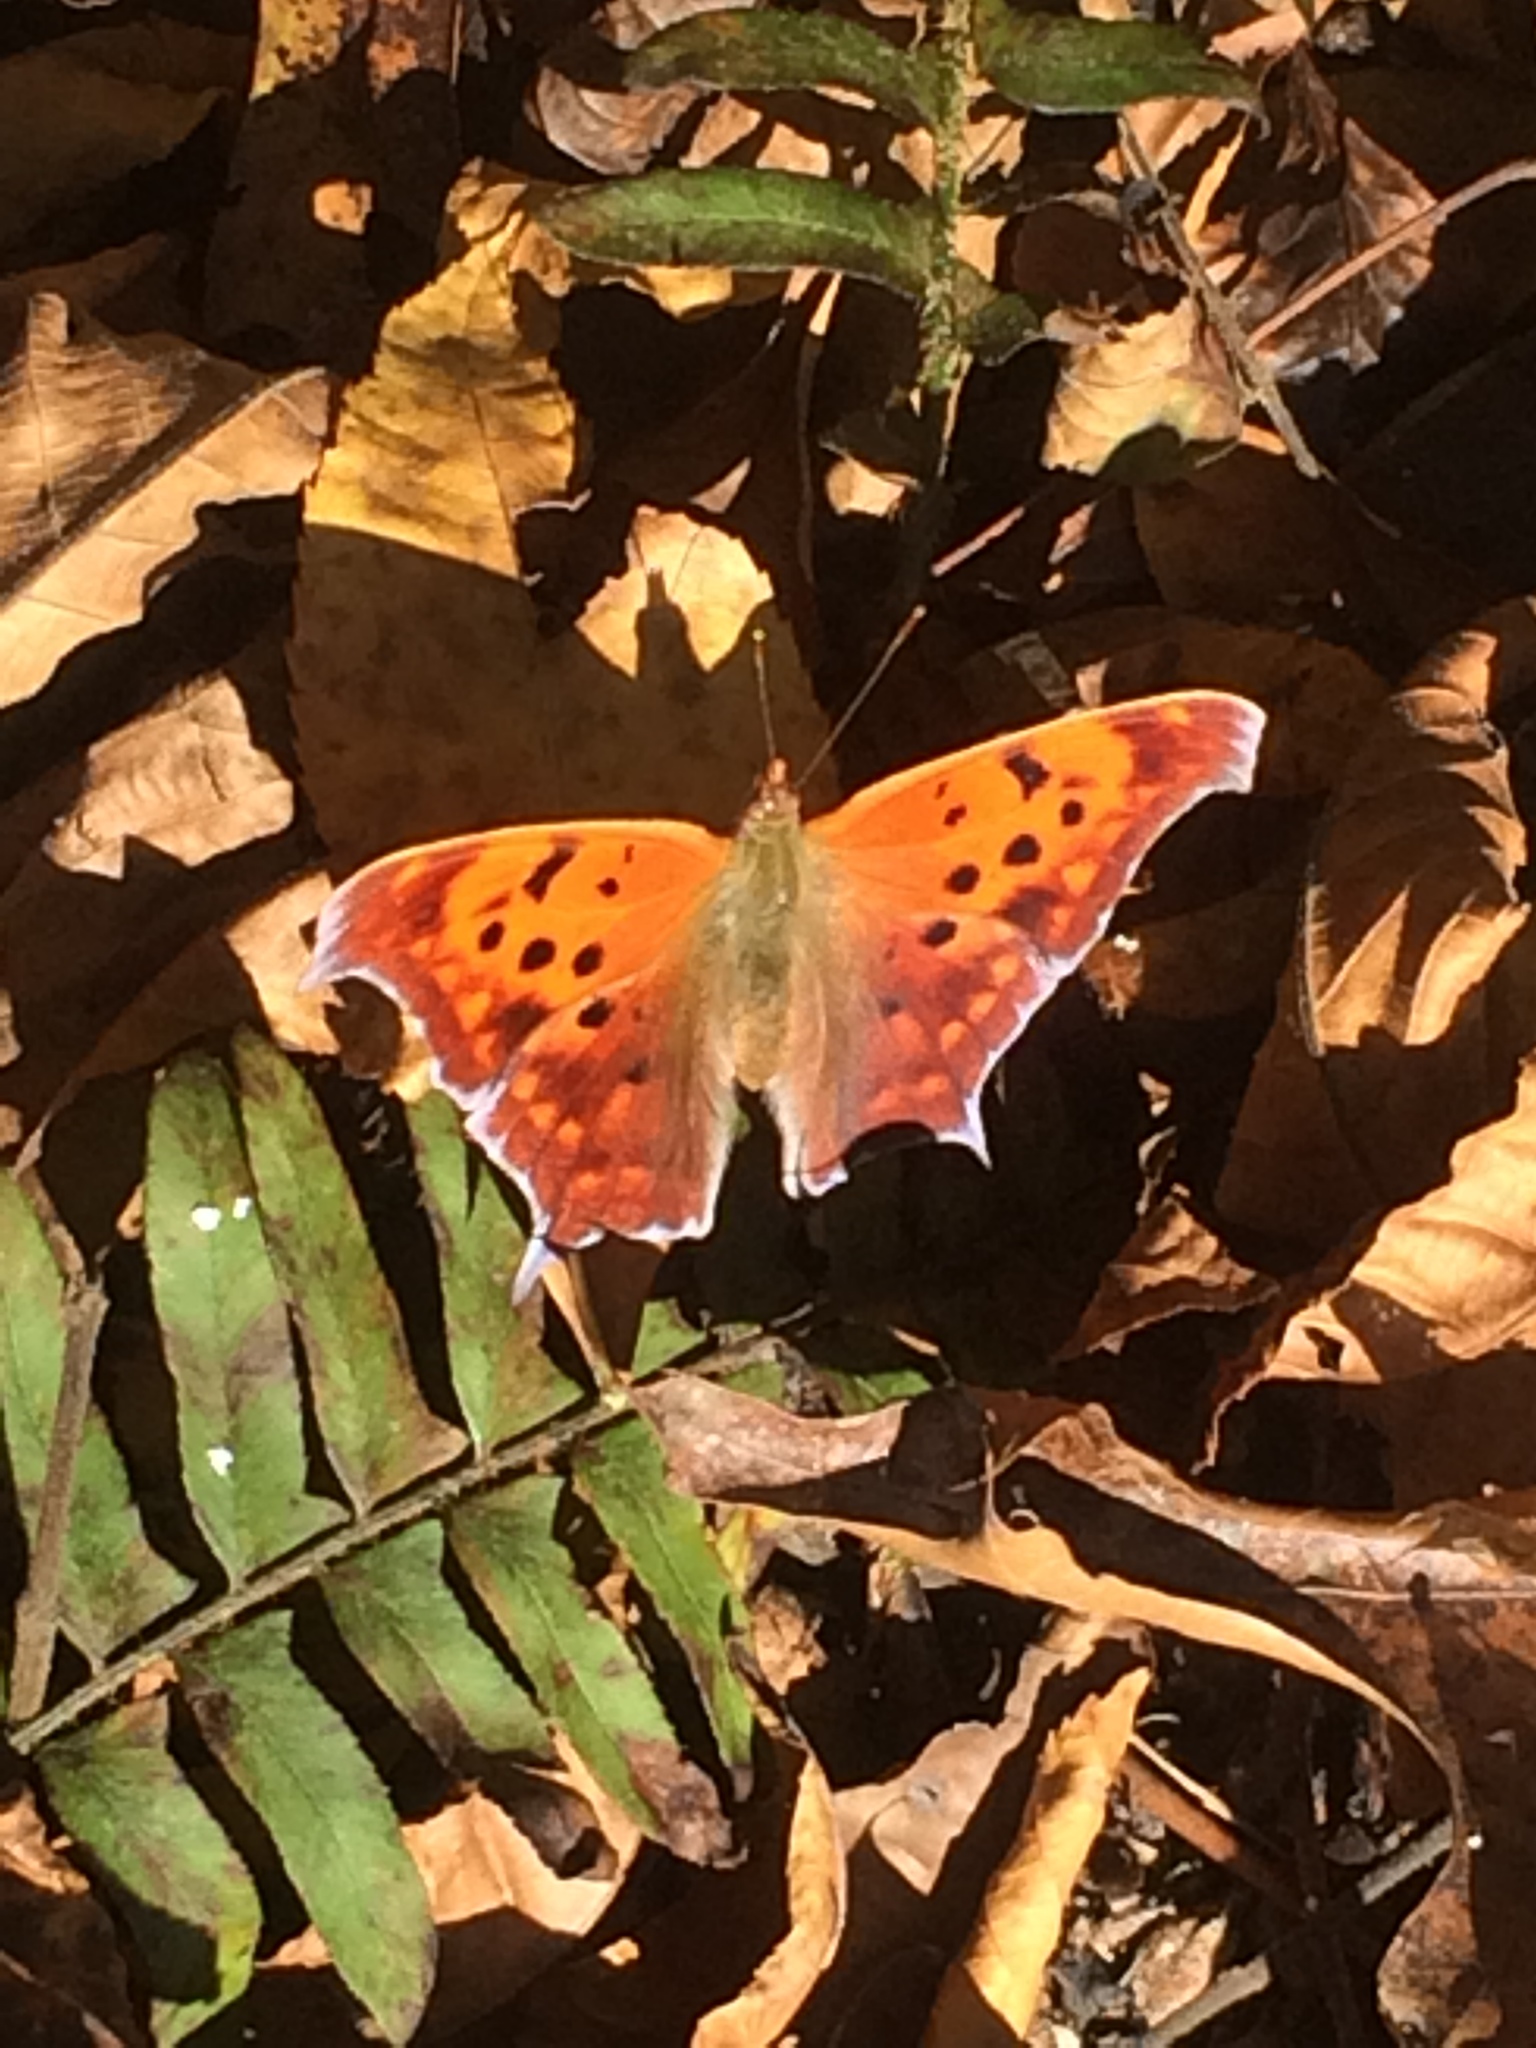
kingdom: Animalia
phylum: Arthropoda
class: Insecta
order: Lepidoptera
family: Nymphalidae
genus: Polygonia
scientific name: Polygonia interrogationis
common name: Question mark
